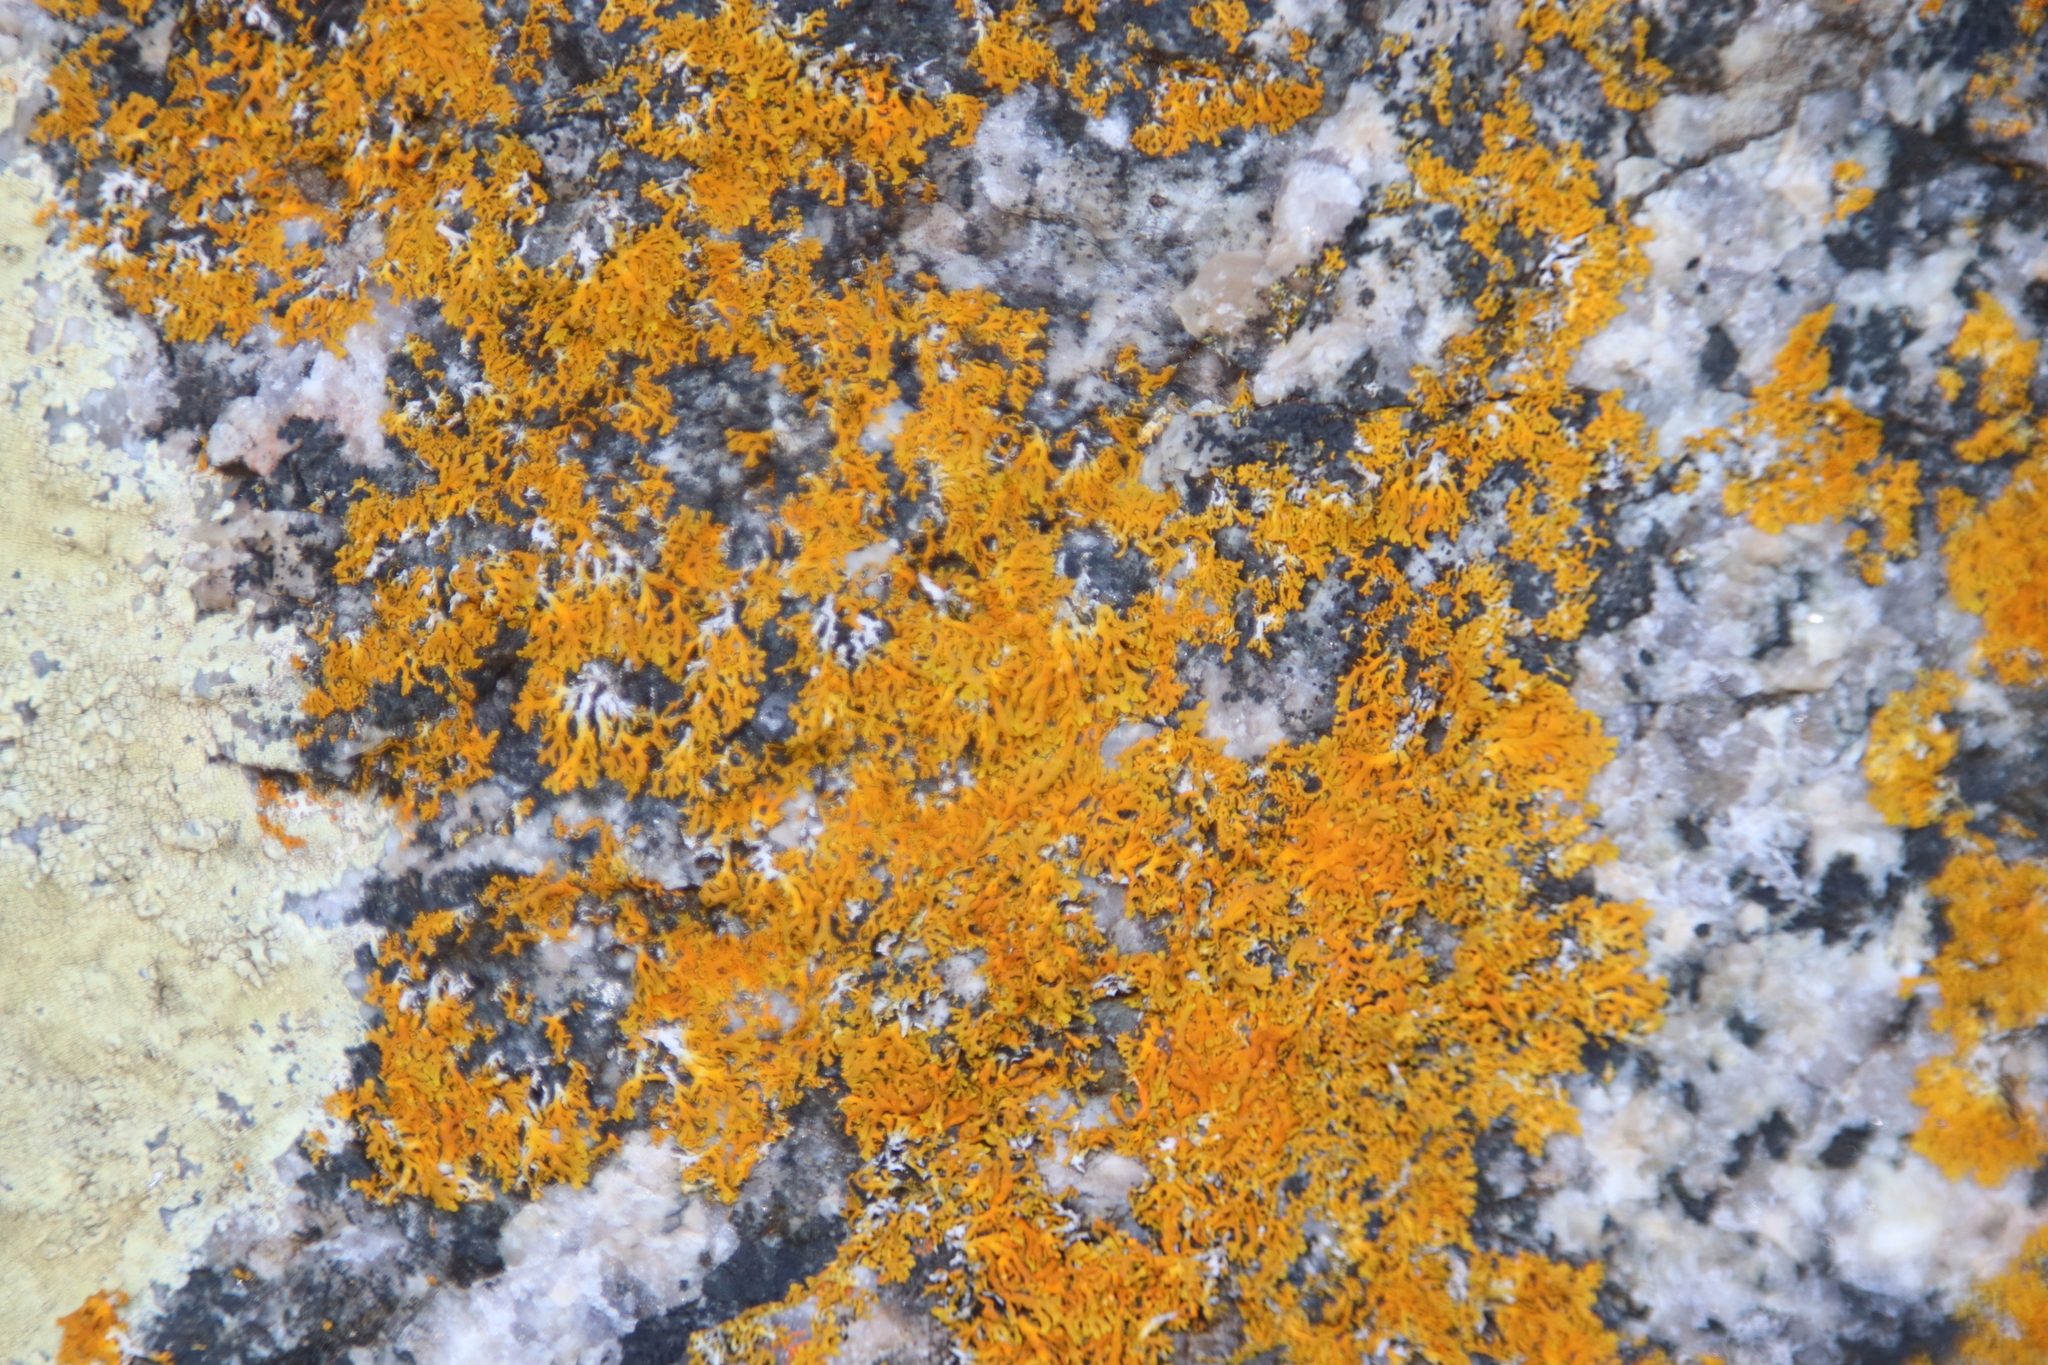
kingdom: Fungi
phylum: Ascomycota
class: Lecanoromycetes
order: Teloschistales
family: Teloschistaceae
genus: Dufourea
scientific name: Dufourea capensis
